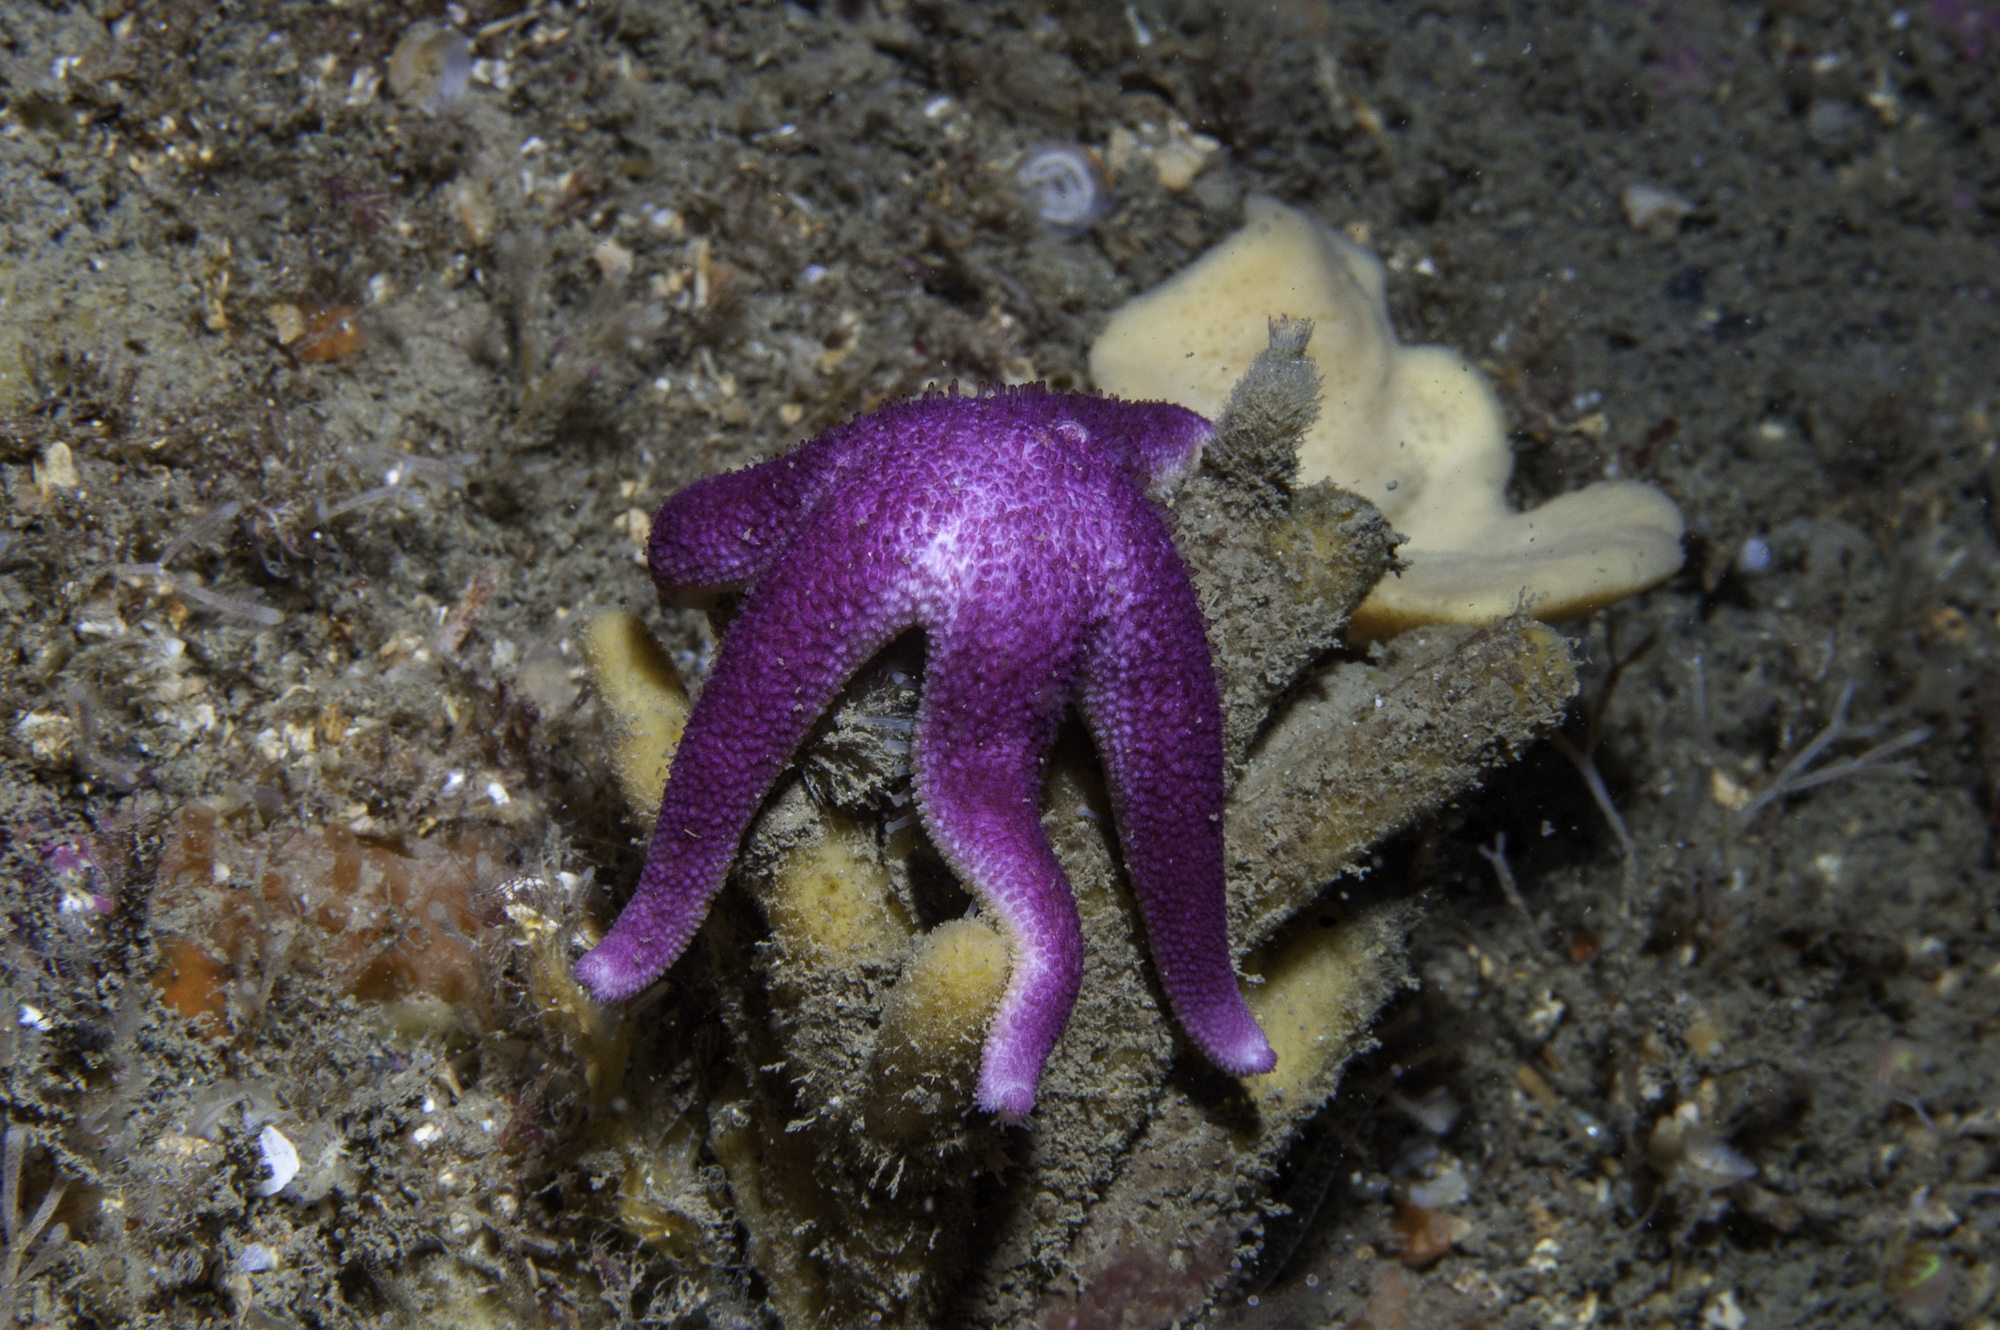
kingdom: Animalia
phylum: Echinodermata
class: Asteroidea
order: Spinulosida
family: Echinasteridae
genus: Henricia
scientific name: Henricia oculata
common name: Bloody henry starfish
